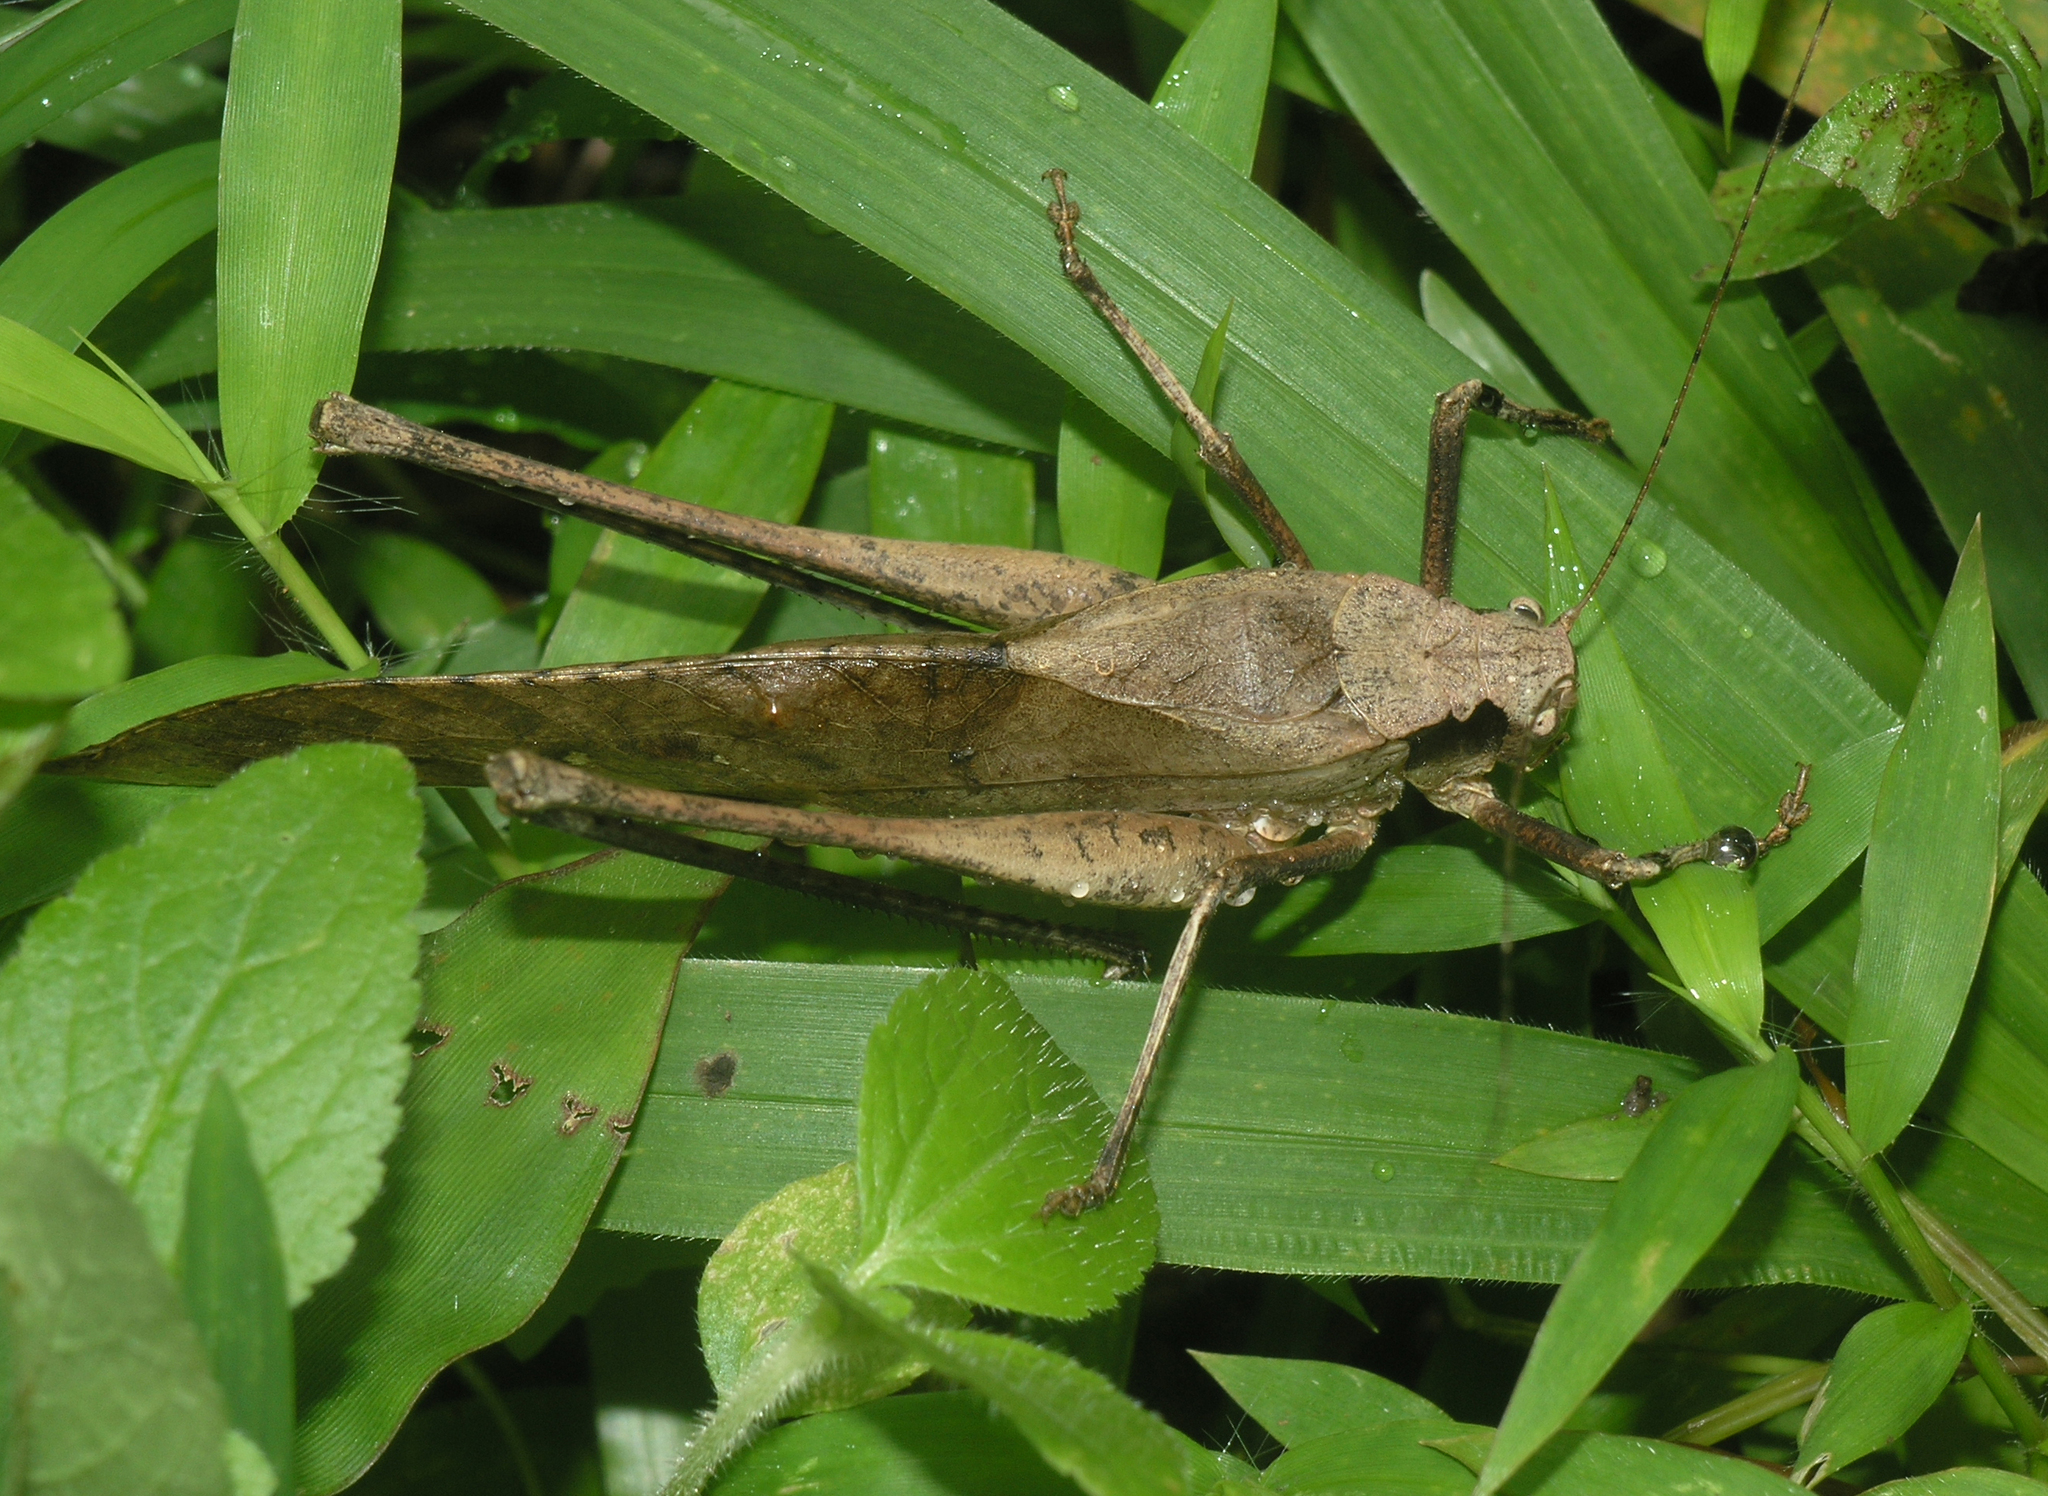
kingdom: Animalia
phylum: Arthropoda
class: Insecta
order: Orthoptera
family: Tettigoniidae
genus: Mecopoda
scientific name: Mecopoda elongata
